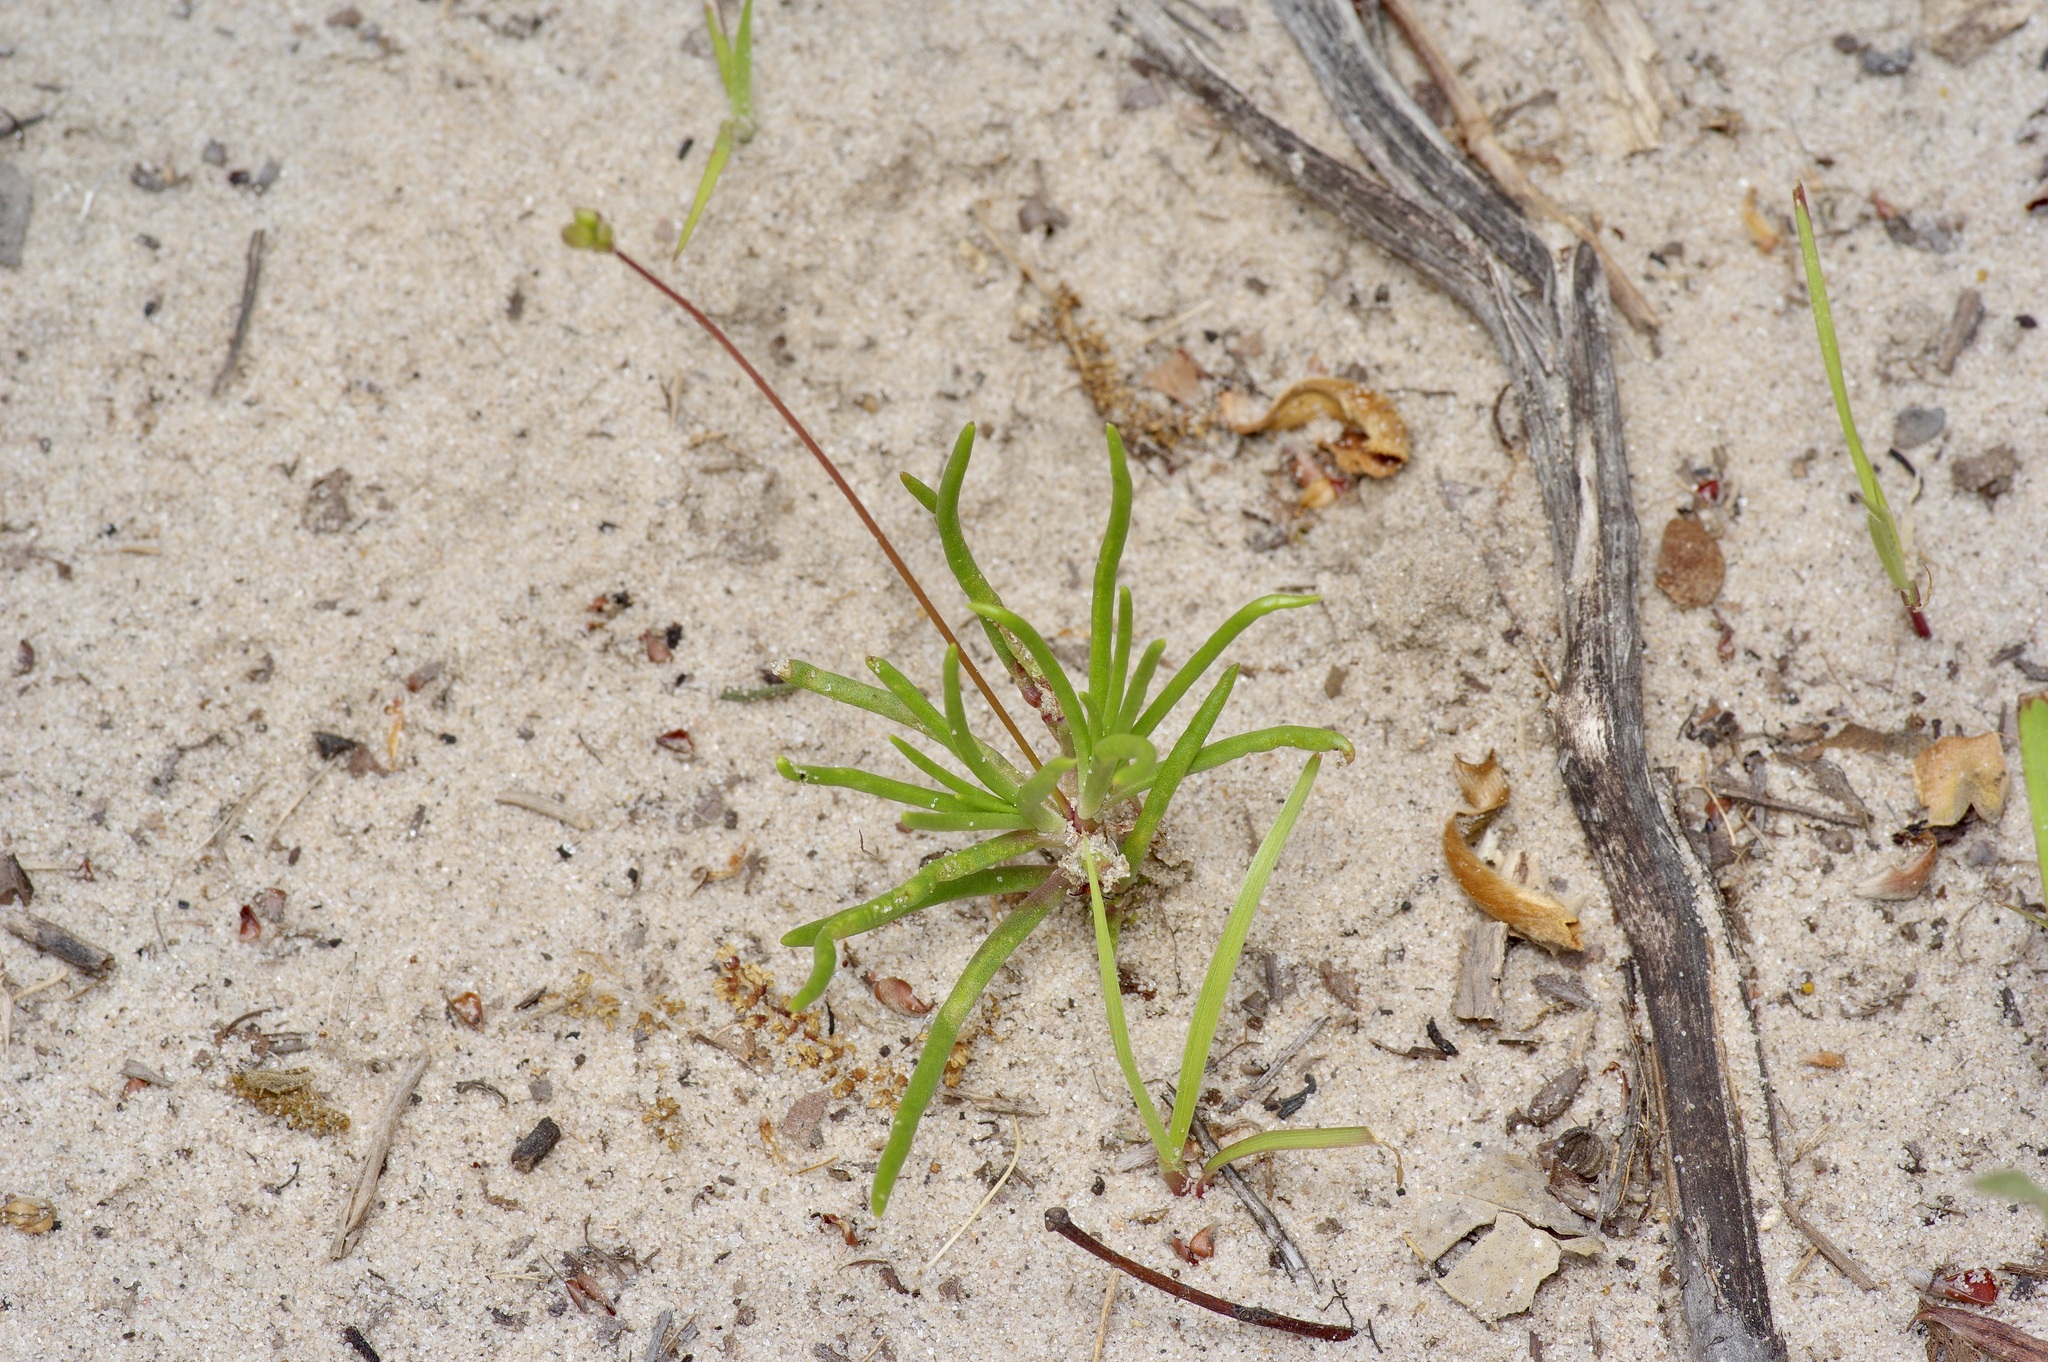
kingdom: Plantae
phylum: Tracheophyta
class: Magnoliopsida
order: Caryophyllales
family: Montiaceae
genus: Phemeranthus
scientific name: Phemeranthus rugospermus
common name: Prairie fameflower
